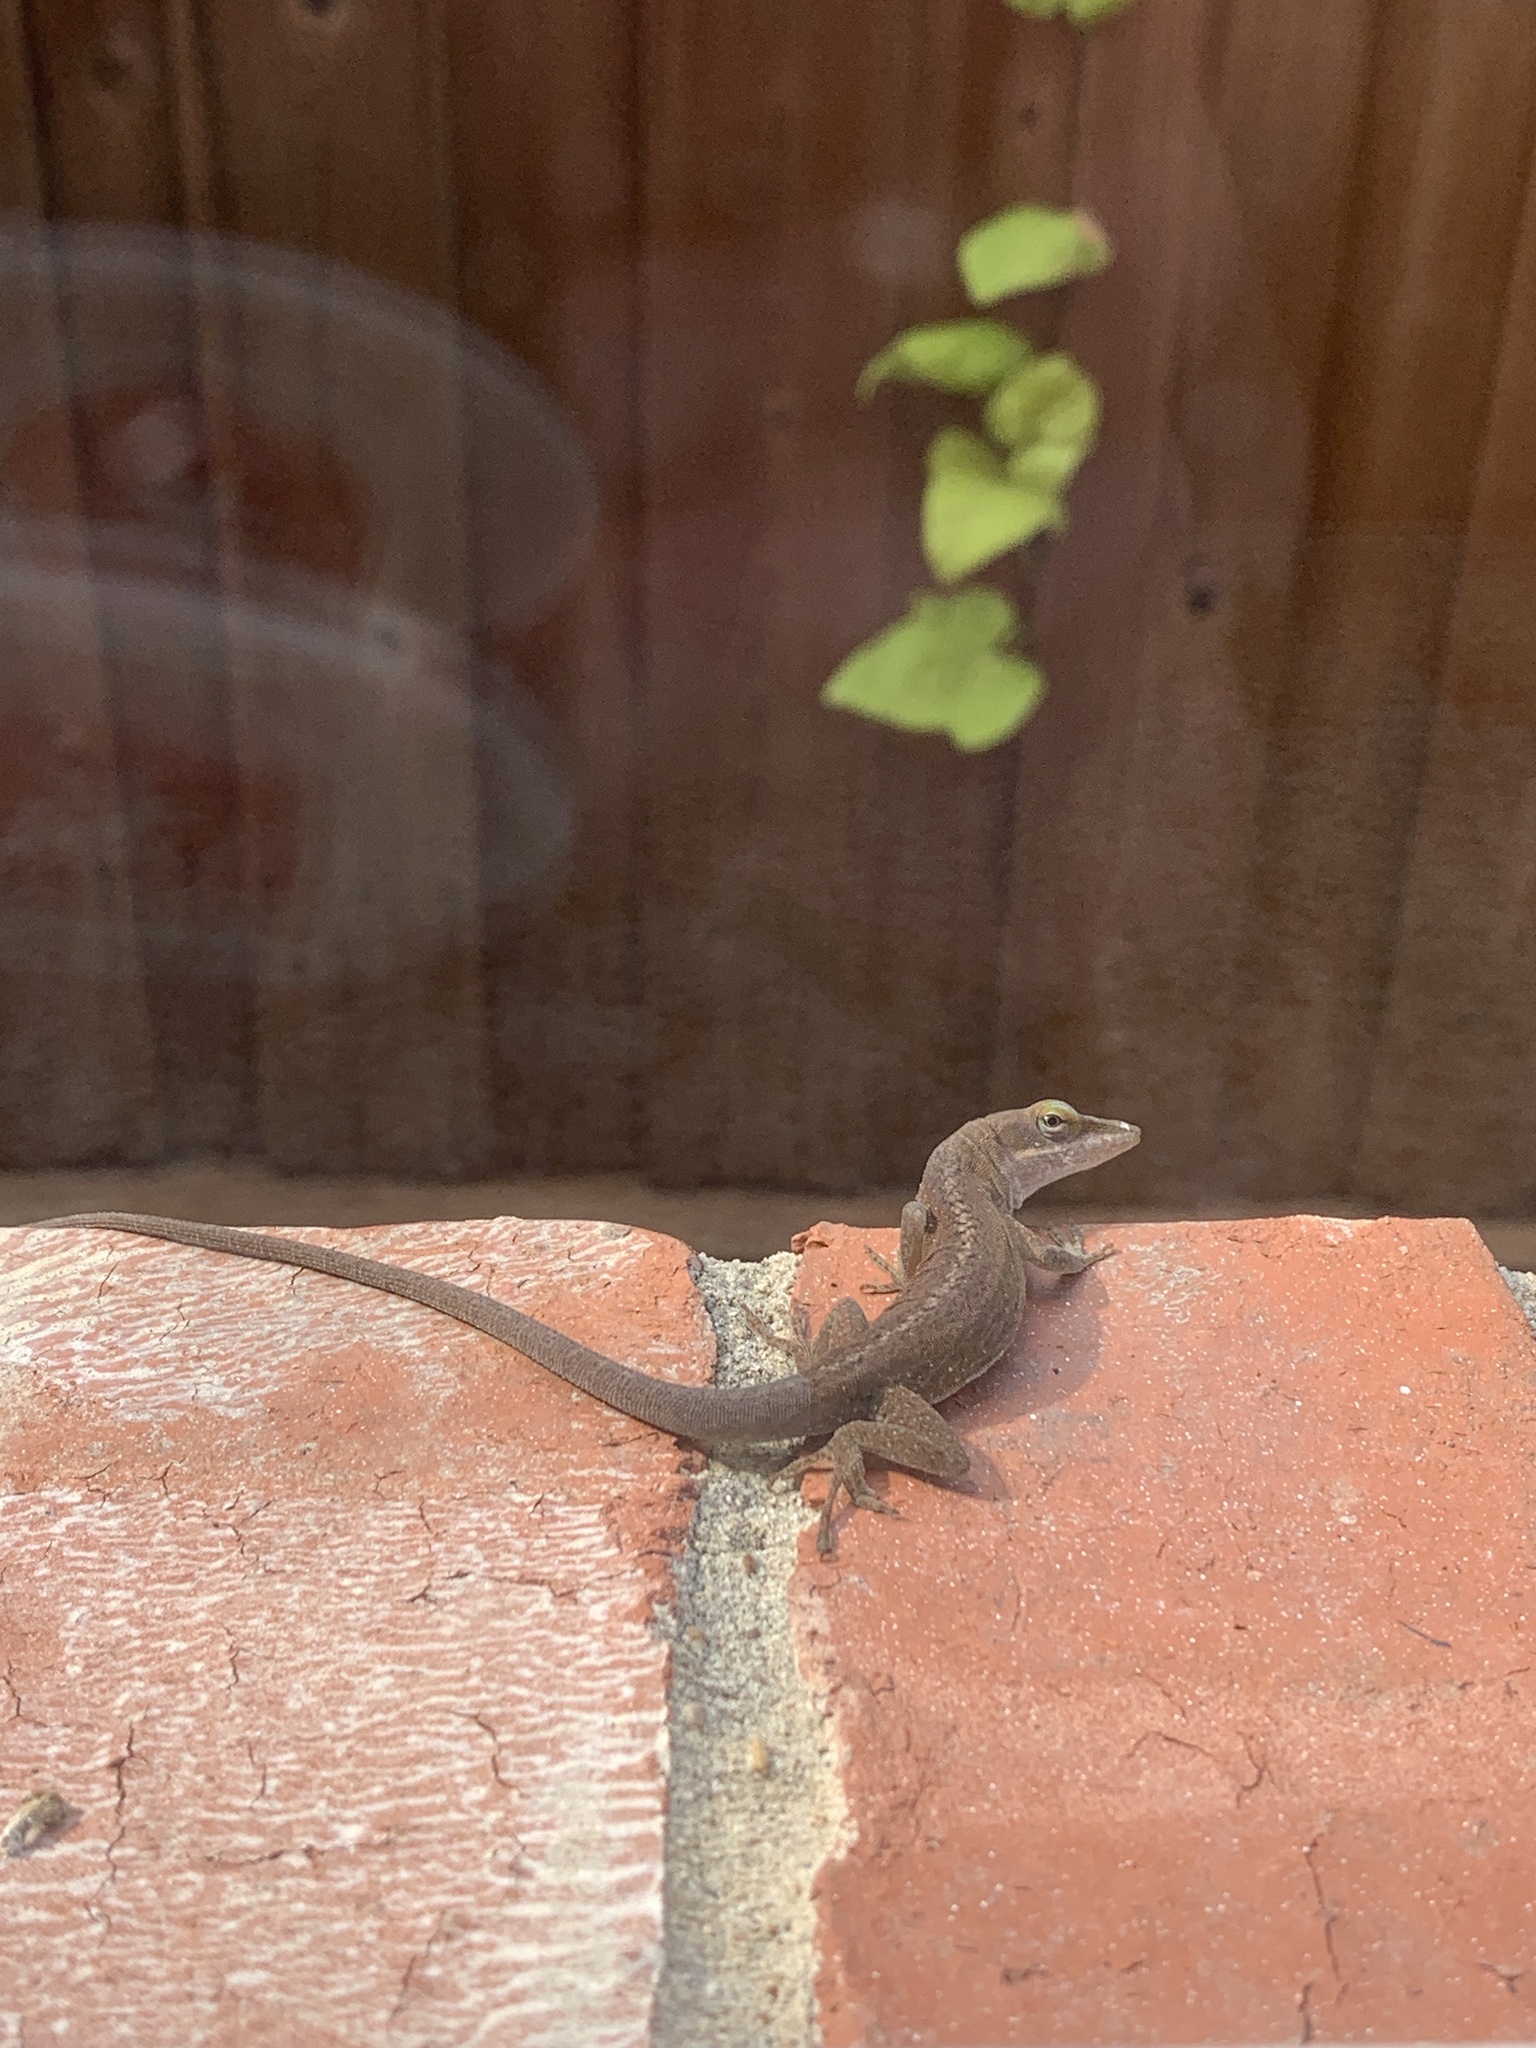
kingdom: Animalia
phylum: Chordata
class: Squamata
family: Dactyloidae
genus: Anolis
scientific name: Anolis carolinensis
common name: Green anole
